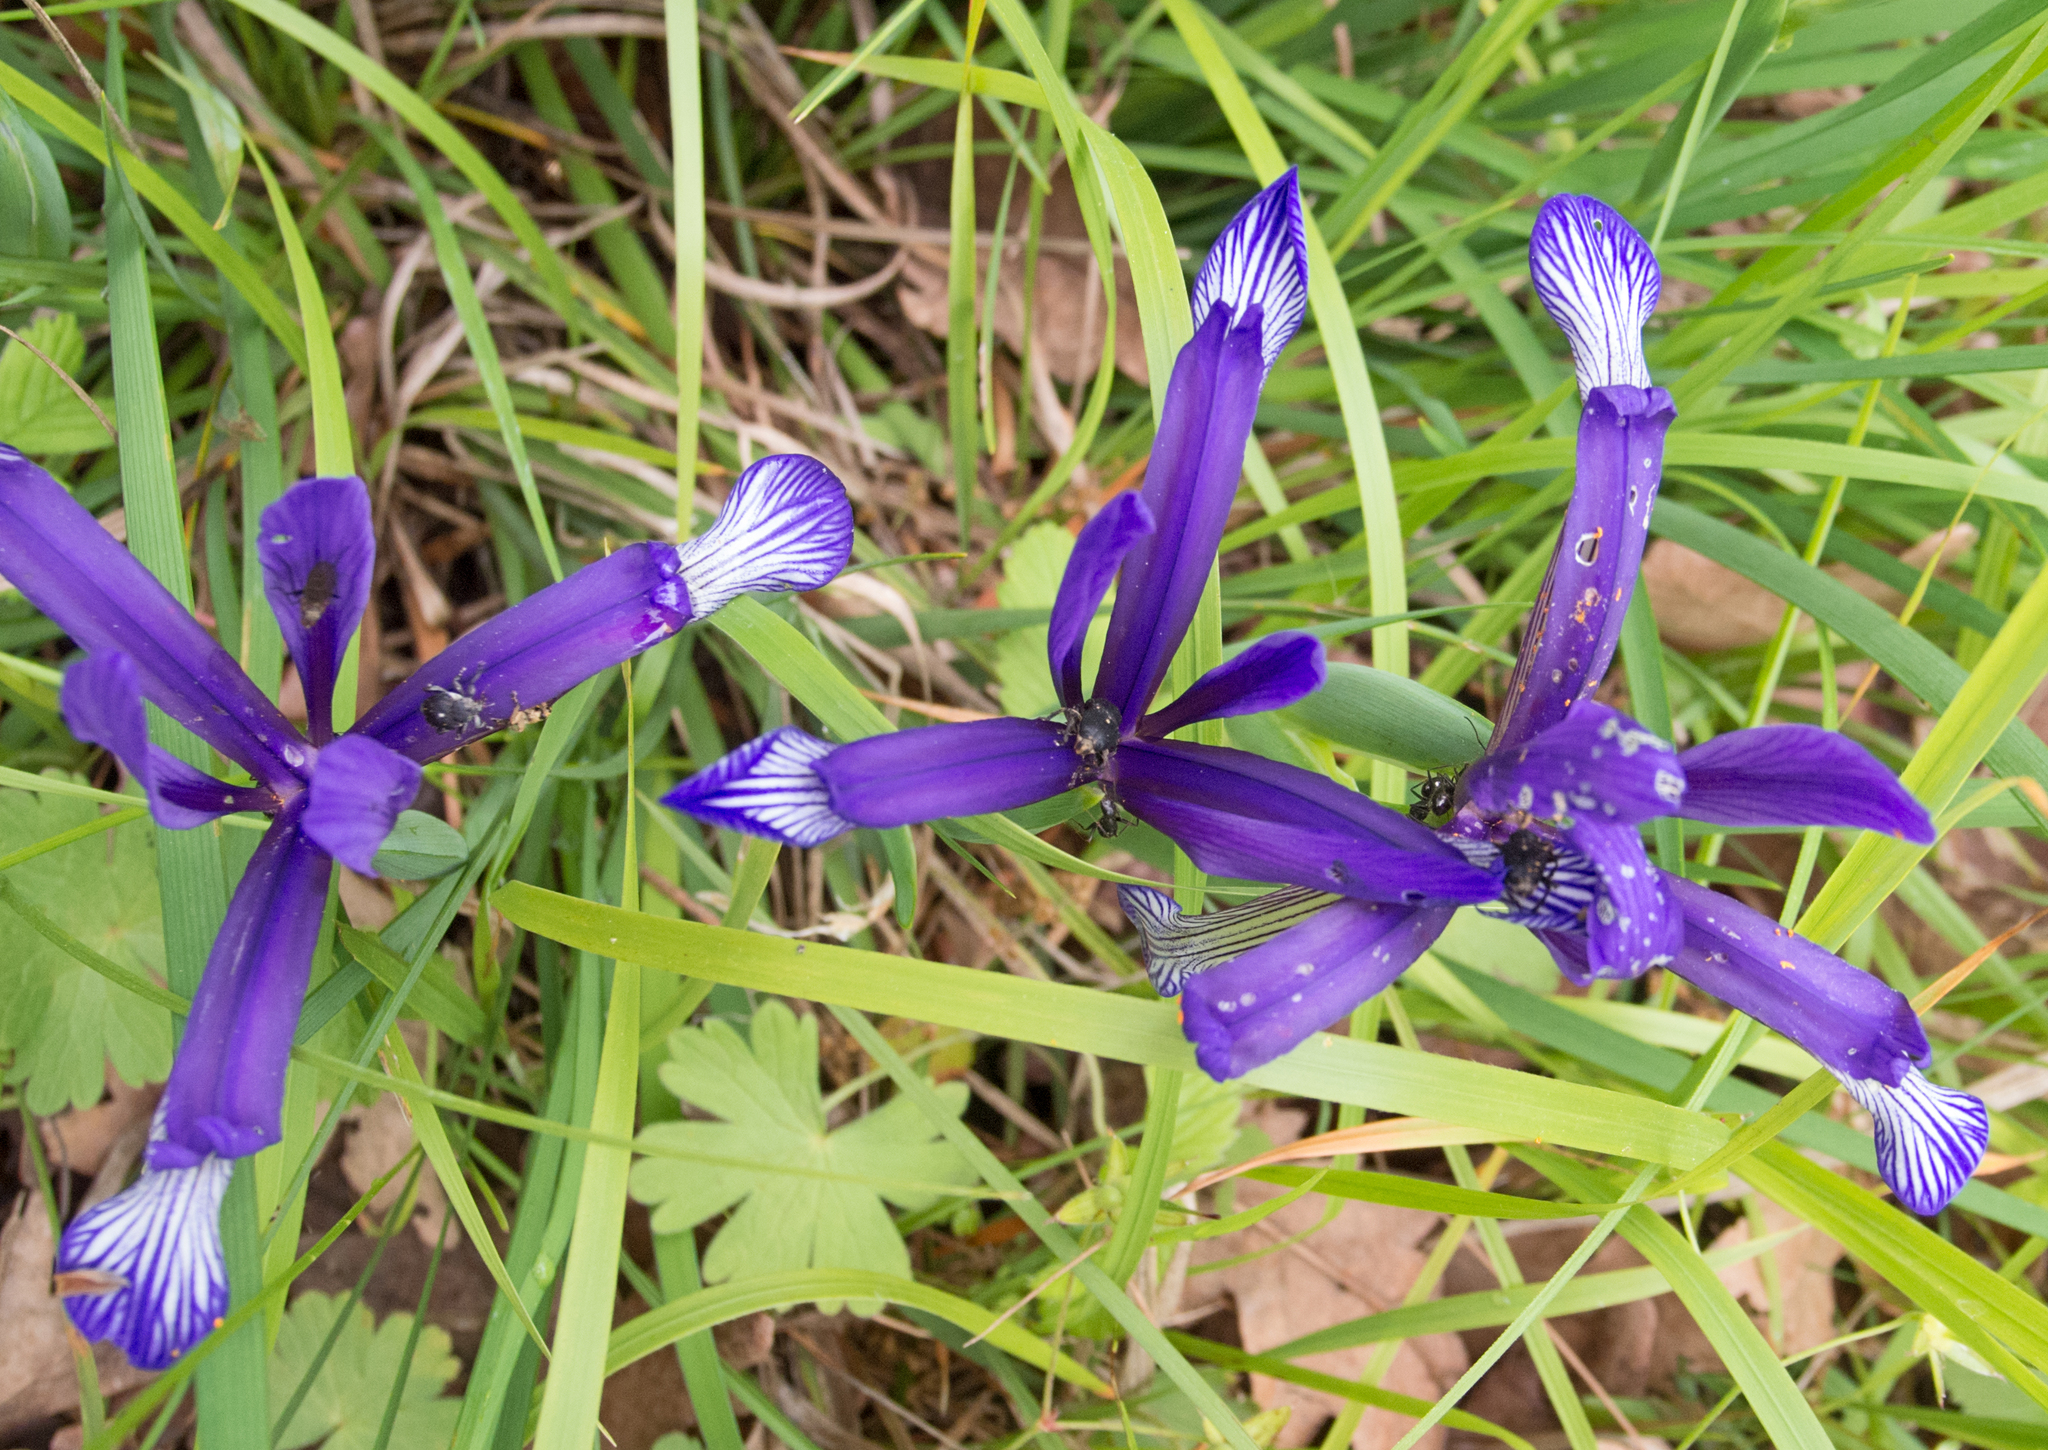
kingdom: Animalia
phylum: Arthropoda
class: Insecta
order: Coleoptera
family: Curculionidae
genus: Mononychus
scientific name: Mononychus punctumalbum
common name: Iris weevil
